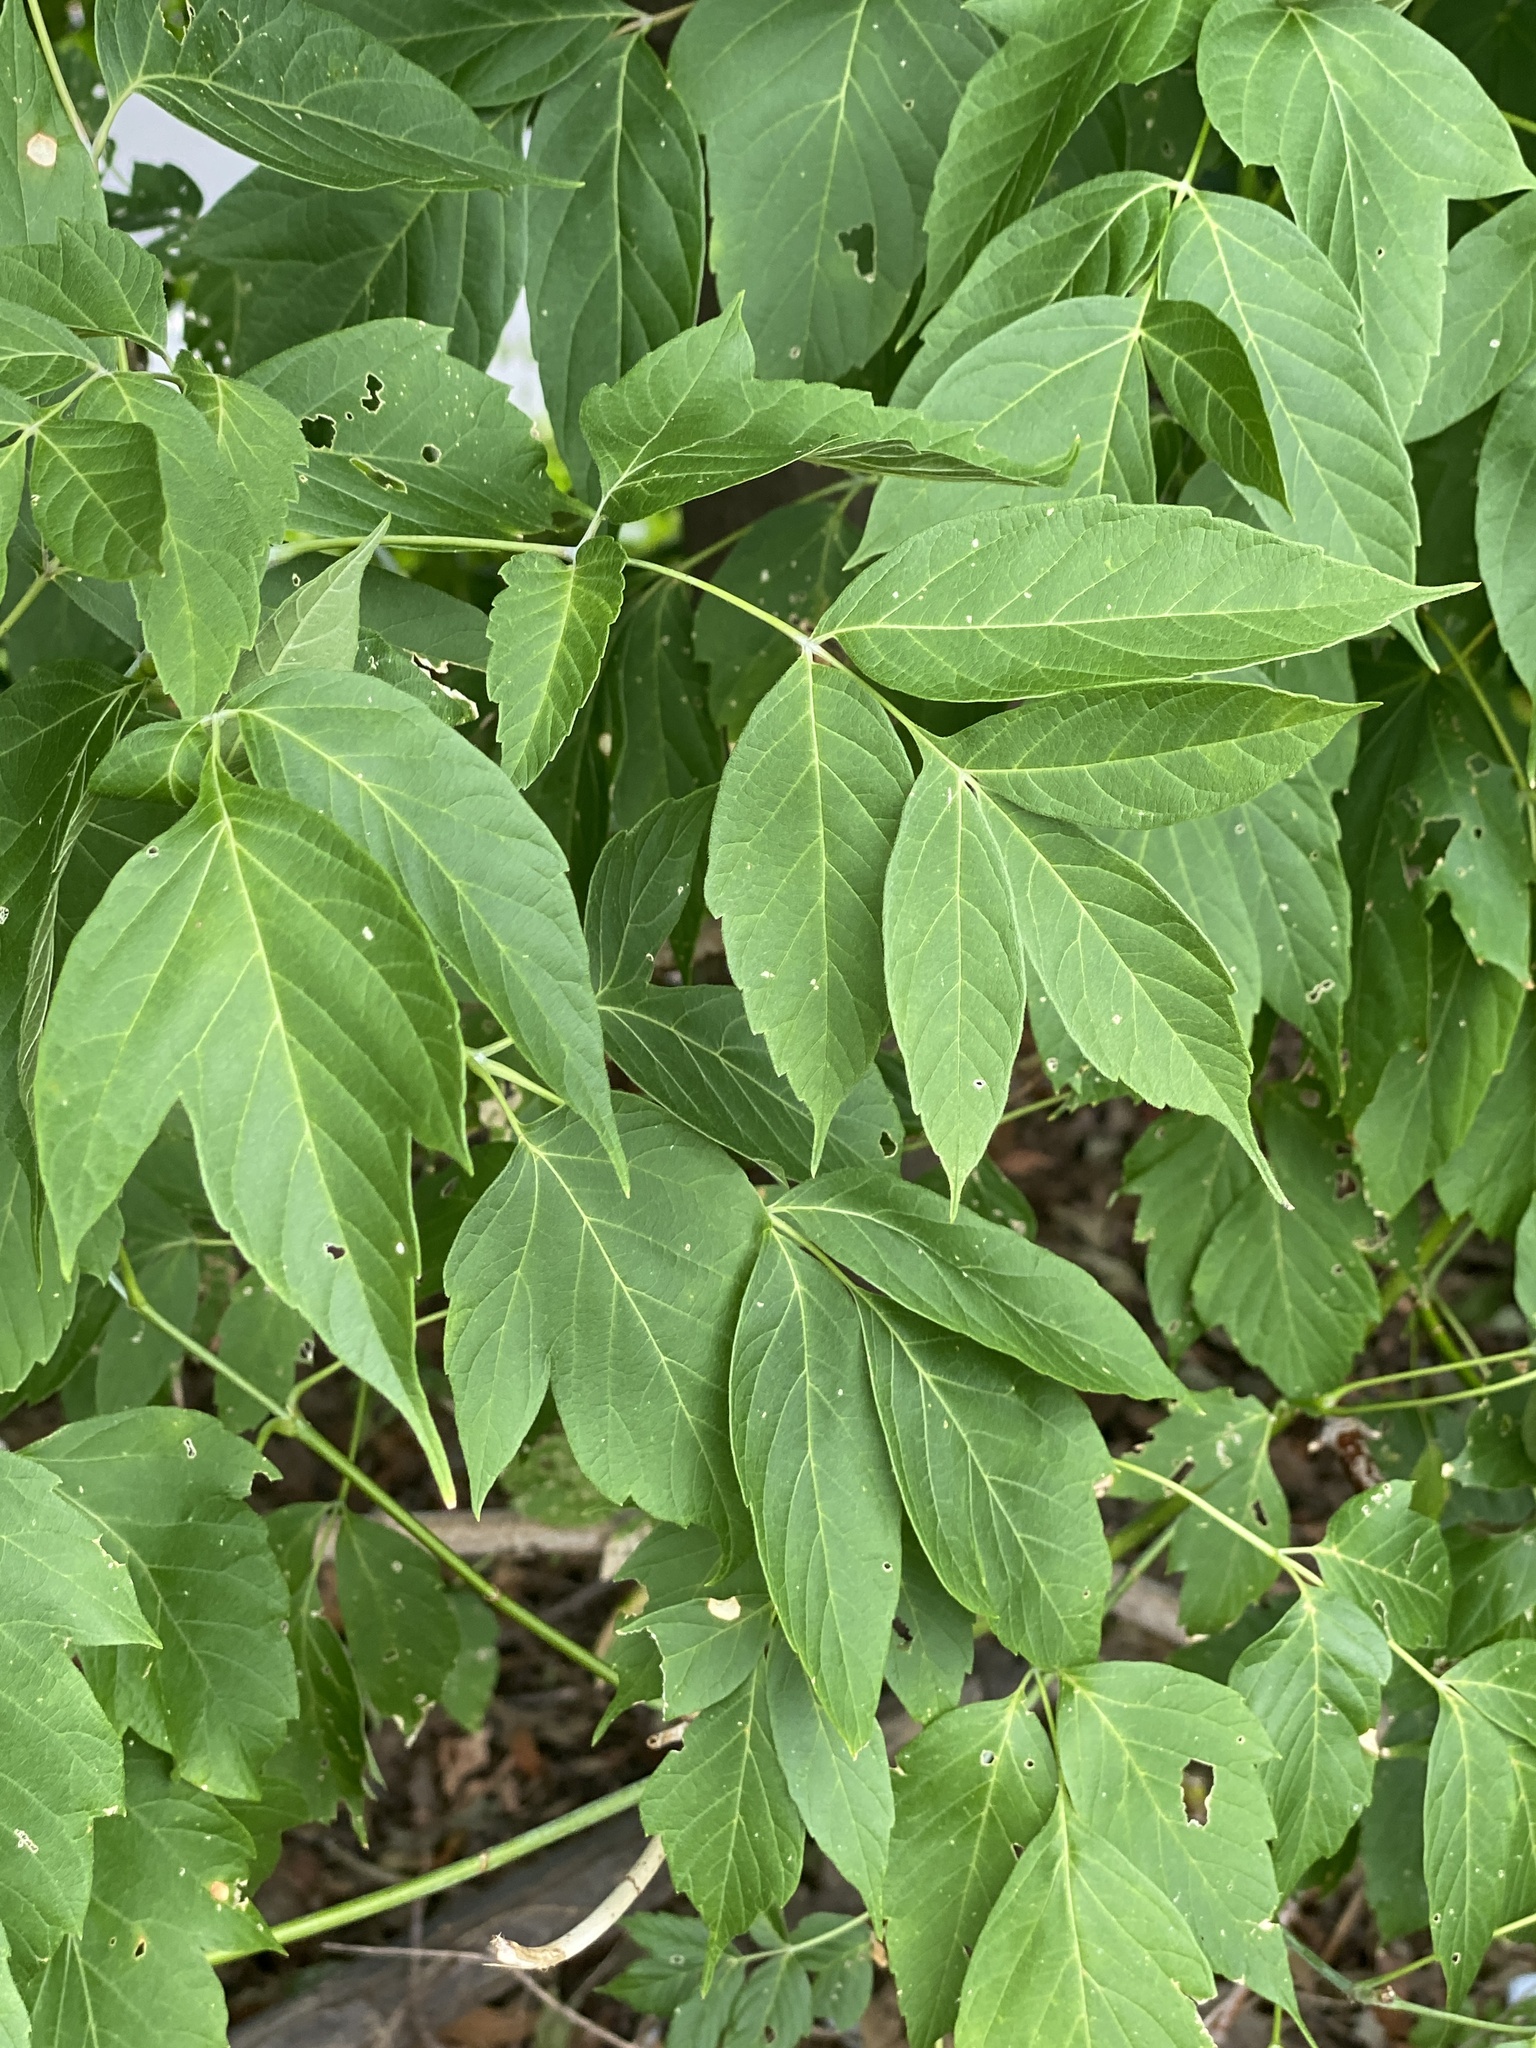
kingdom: Plantae
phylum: Tracheophyta
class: Magnoliopsida
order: Sapindales
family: Sapindaceae
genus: Acer
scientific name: Acer negundo
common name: Ashleaf maple
